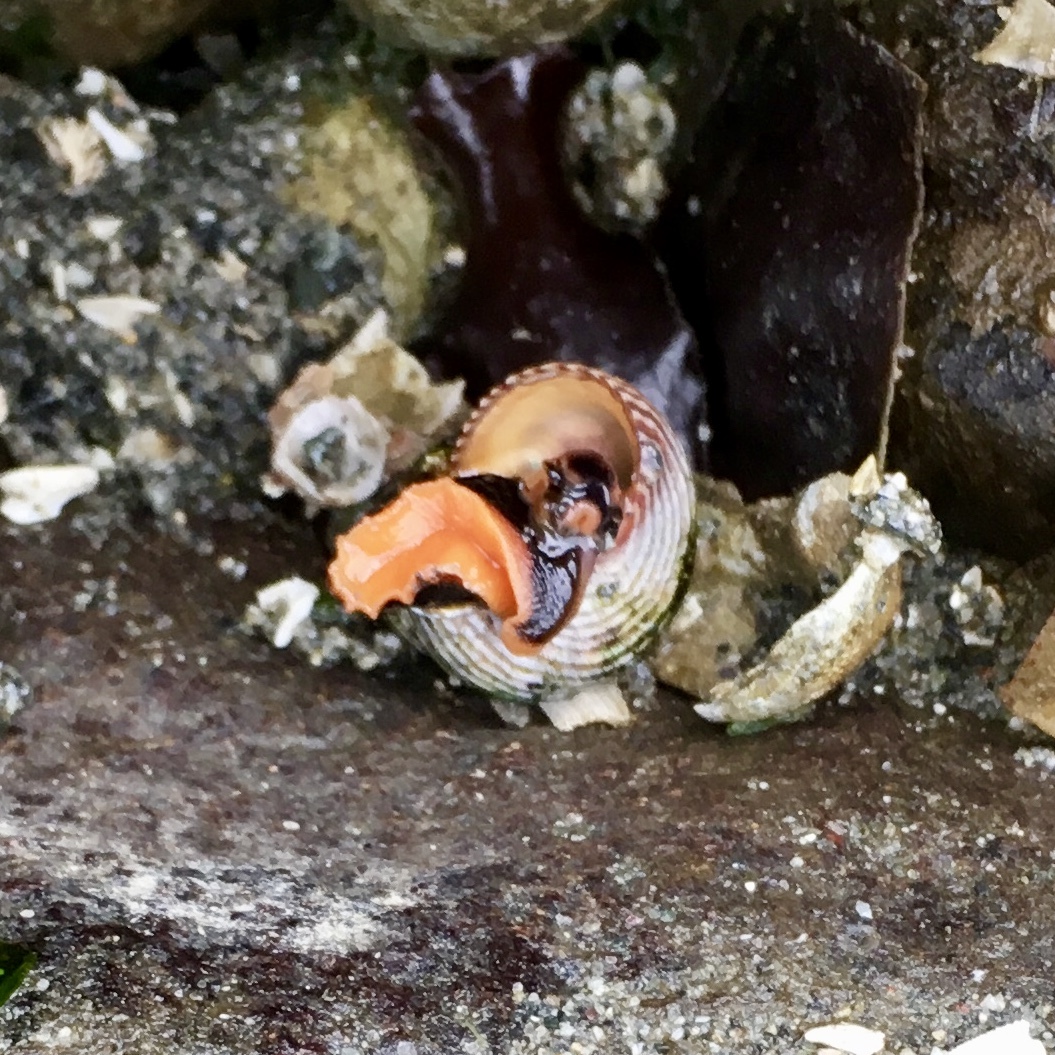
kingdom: Animalia
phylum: Mollusca
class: Gastropoda
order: Trochida
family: Calliostomatidae
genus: Calliostoma
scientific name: Calliostoma ligatum
